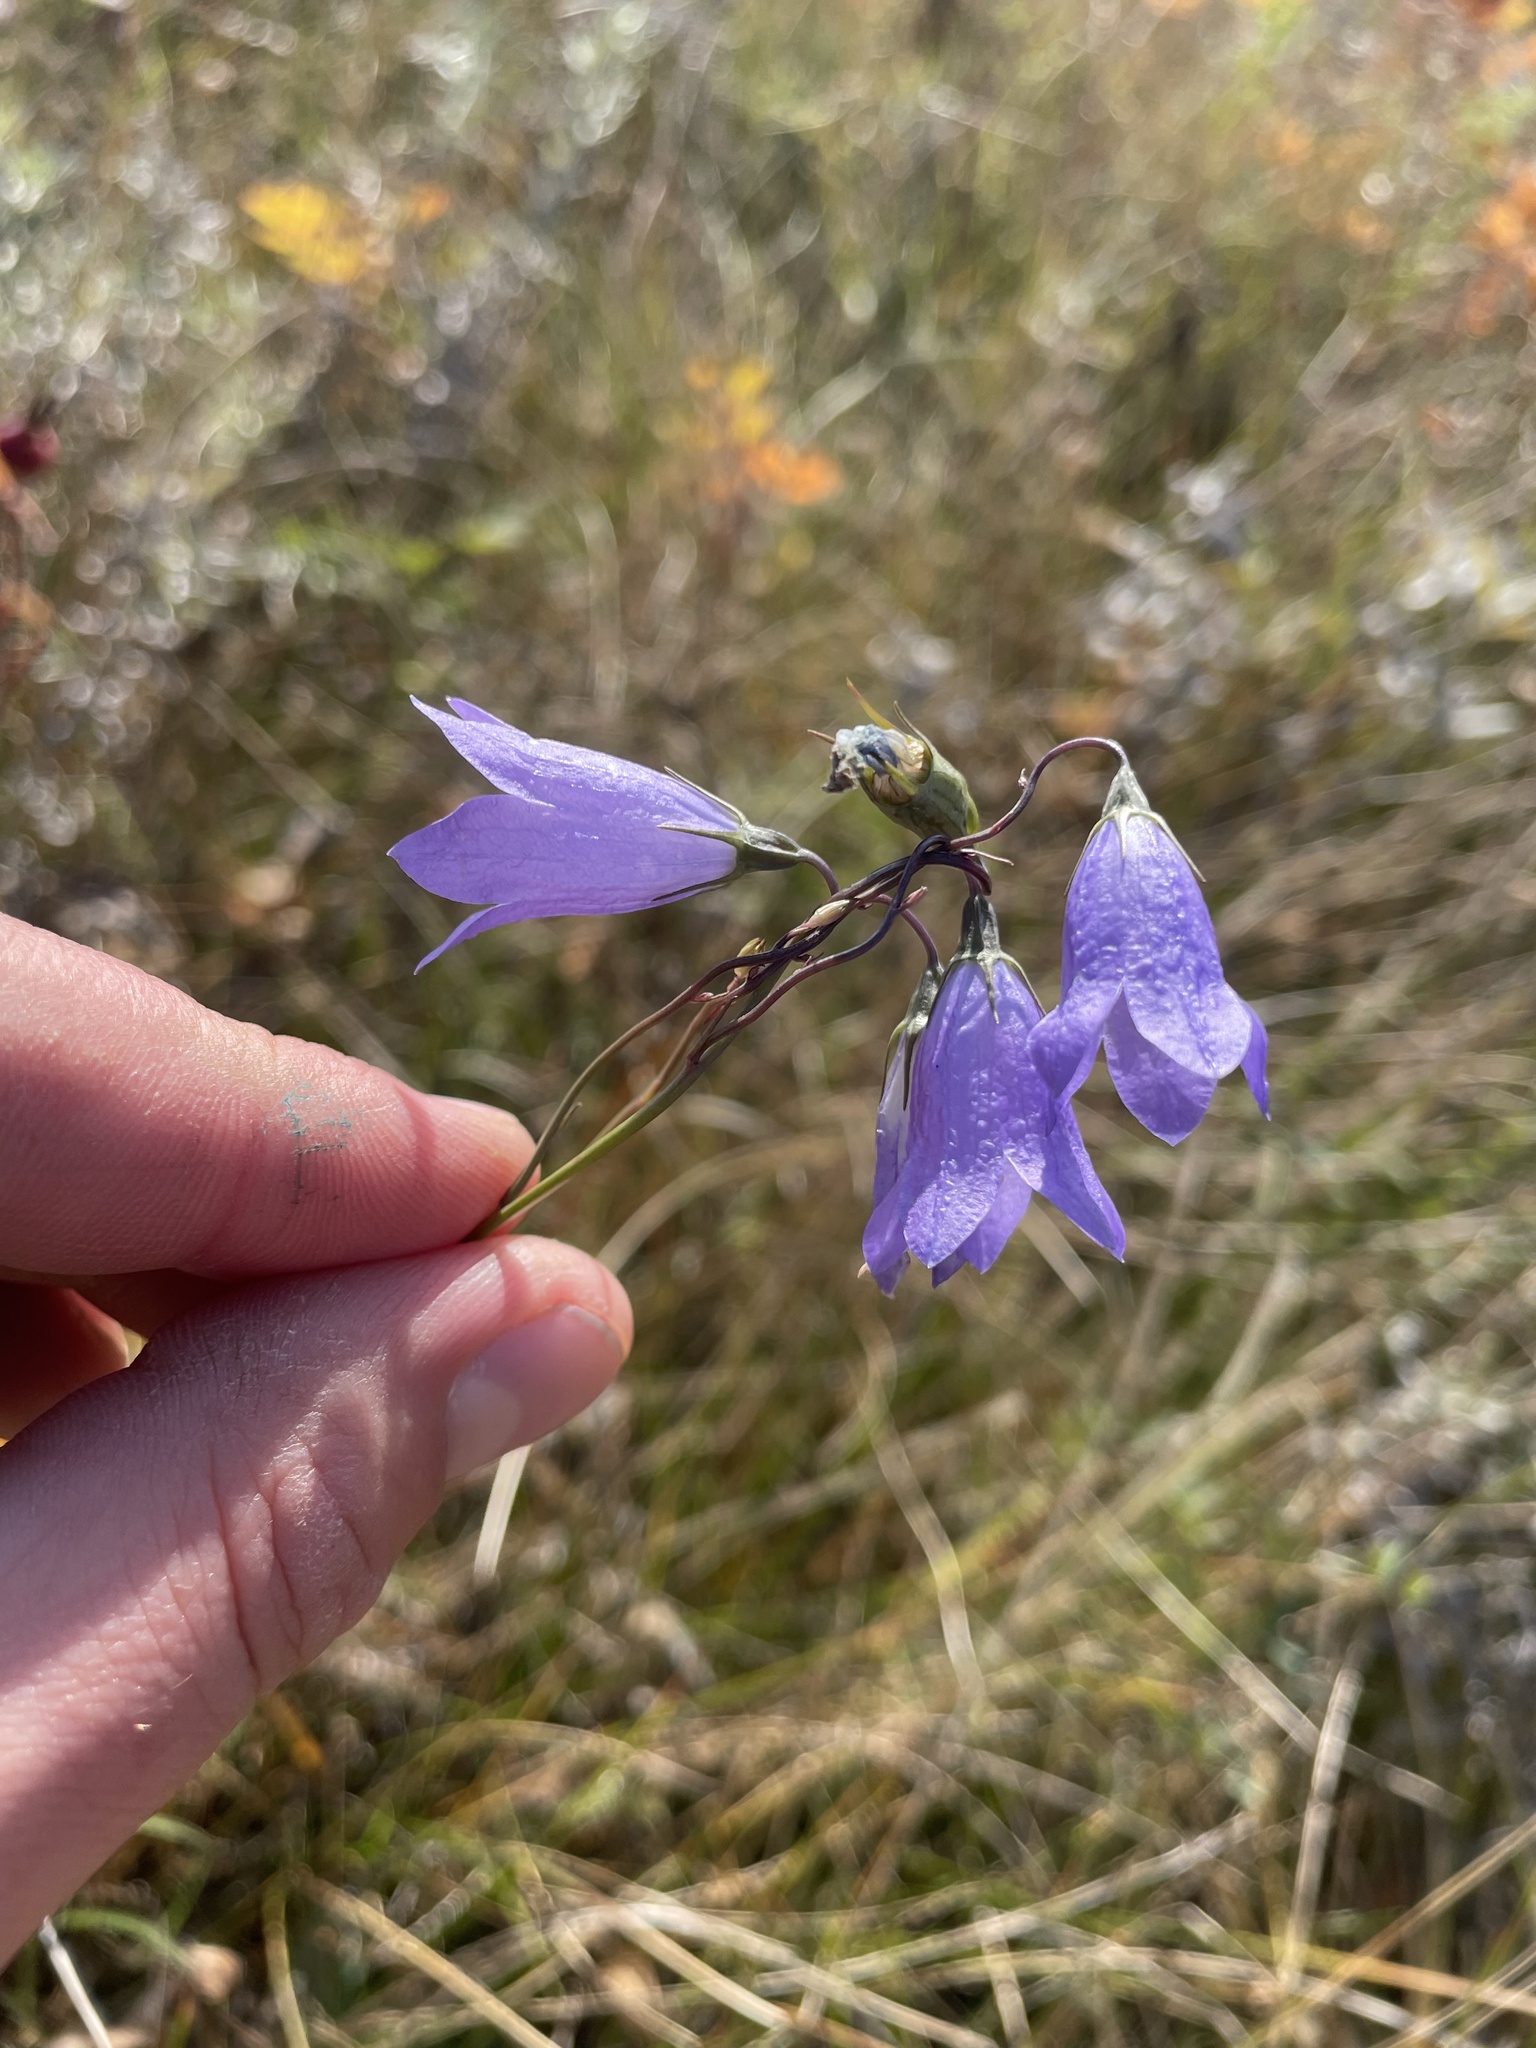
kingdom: Plantae
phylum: Tracheophyta
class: Magnoliopsida
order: Asterales
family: Campanulaceae
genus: Campanula
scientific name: Campanula alaskana
